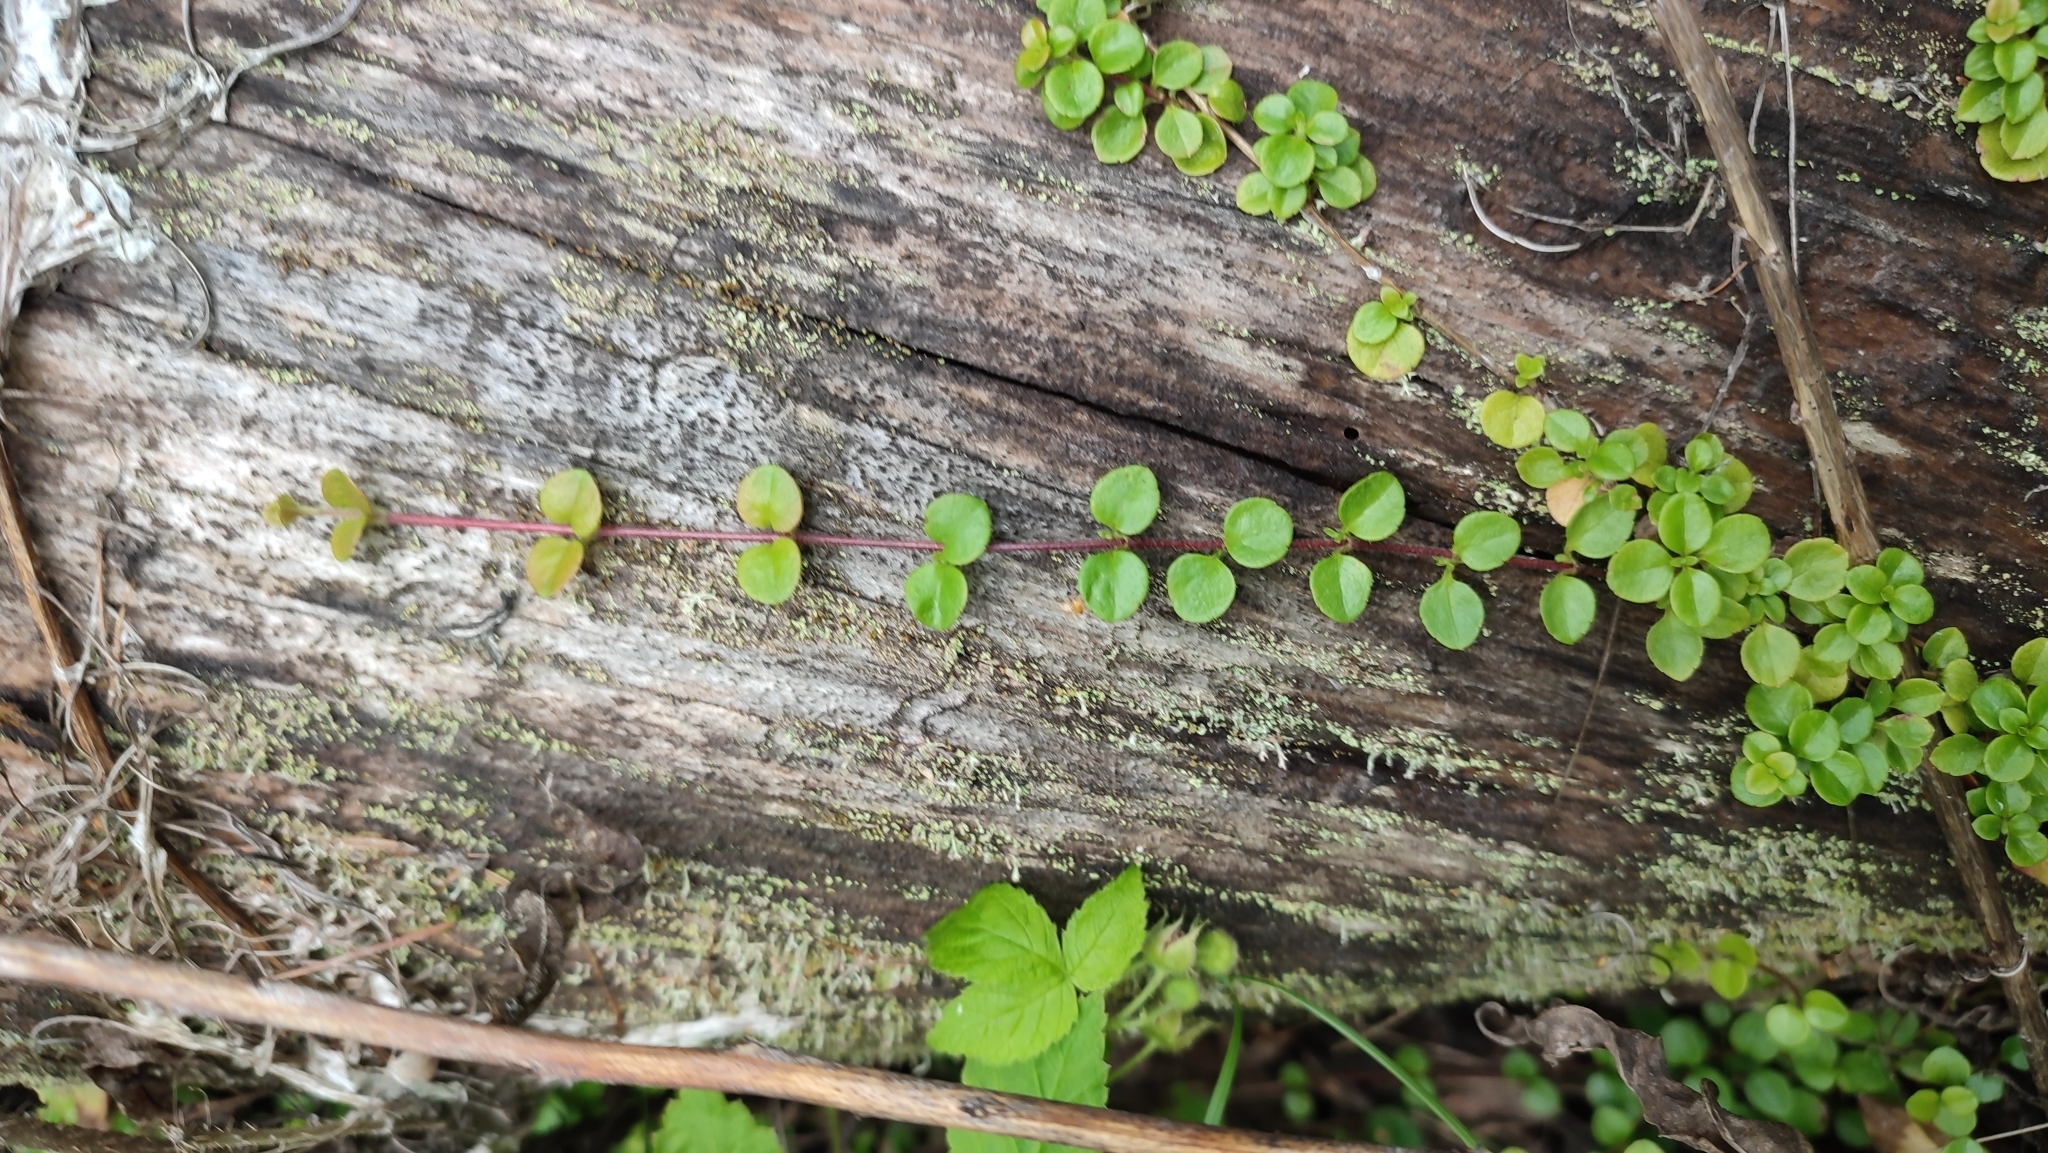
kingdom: Plantae
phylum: Tracheophyta
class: Magnoliopsida
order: Dipsacales
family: Caprifoliaceae
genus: Linnaea
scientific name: Linnaea borealis
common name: Twinflower
